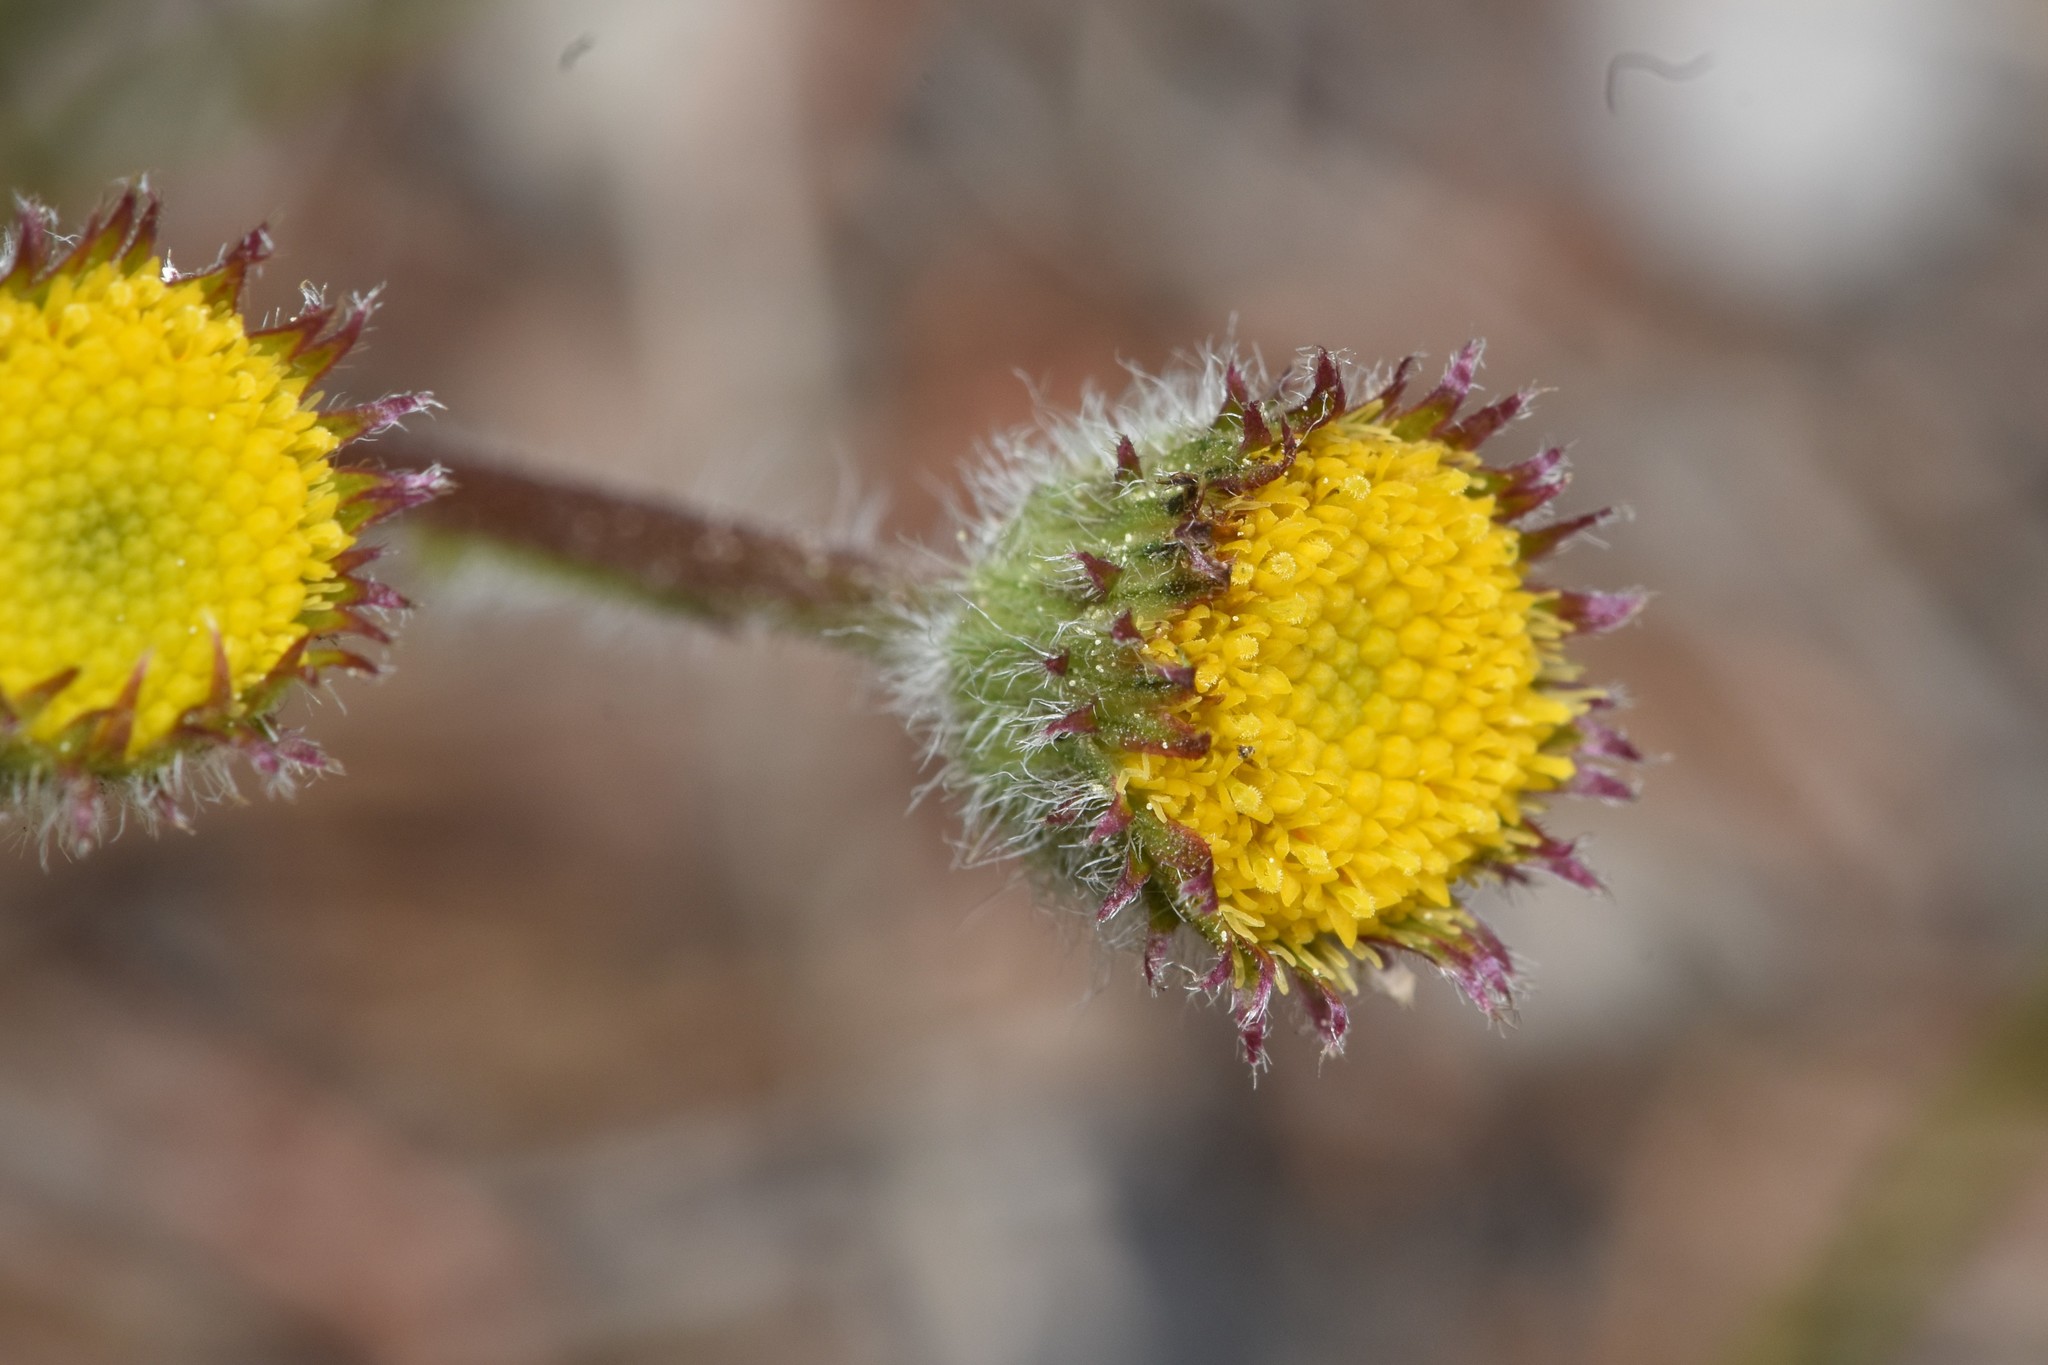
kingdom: Plantae
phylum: Tracheophyta
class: Magnoliopsida
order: Asterales
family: Asteraceae
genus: Erigeron
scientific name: Erigeron compositus
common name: Dwarf mountain fleabane
